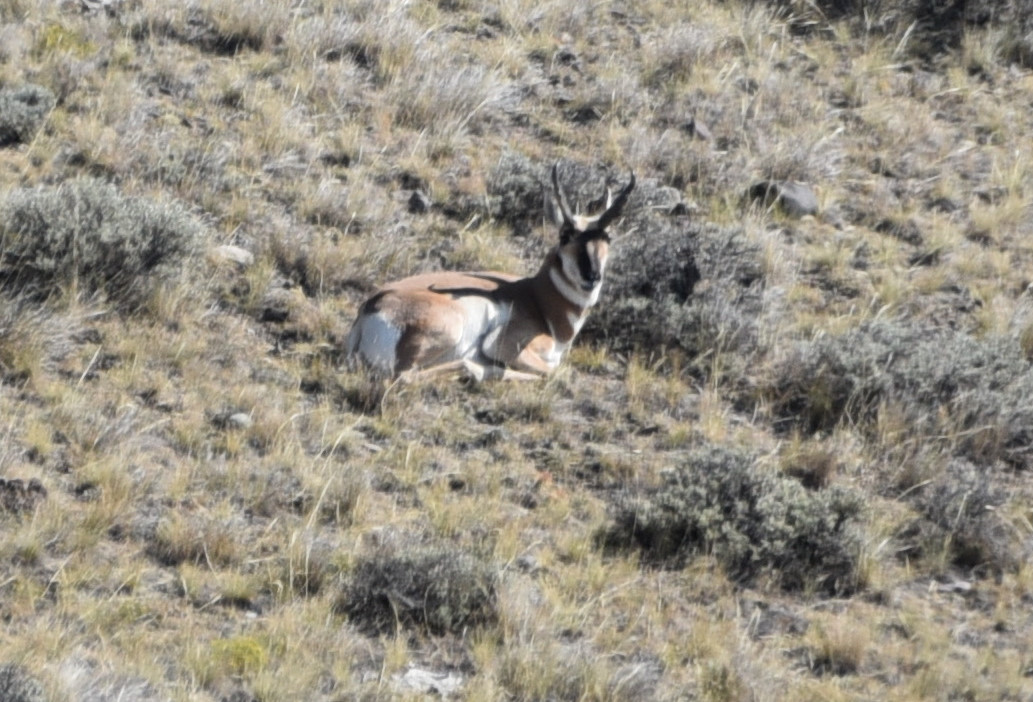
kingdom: Animalia
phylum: Chordata
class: Mammalia
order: Artiodactyla
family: Antilocapridae
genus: Antilocapra
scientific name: Antilocapra americana
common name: Pronghorn
